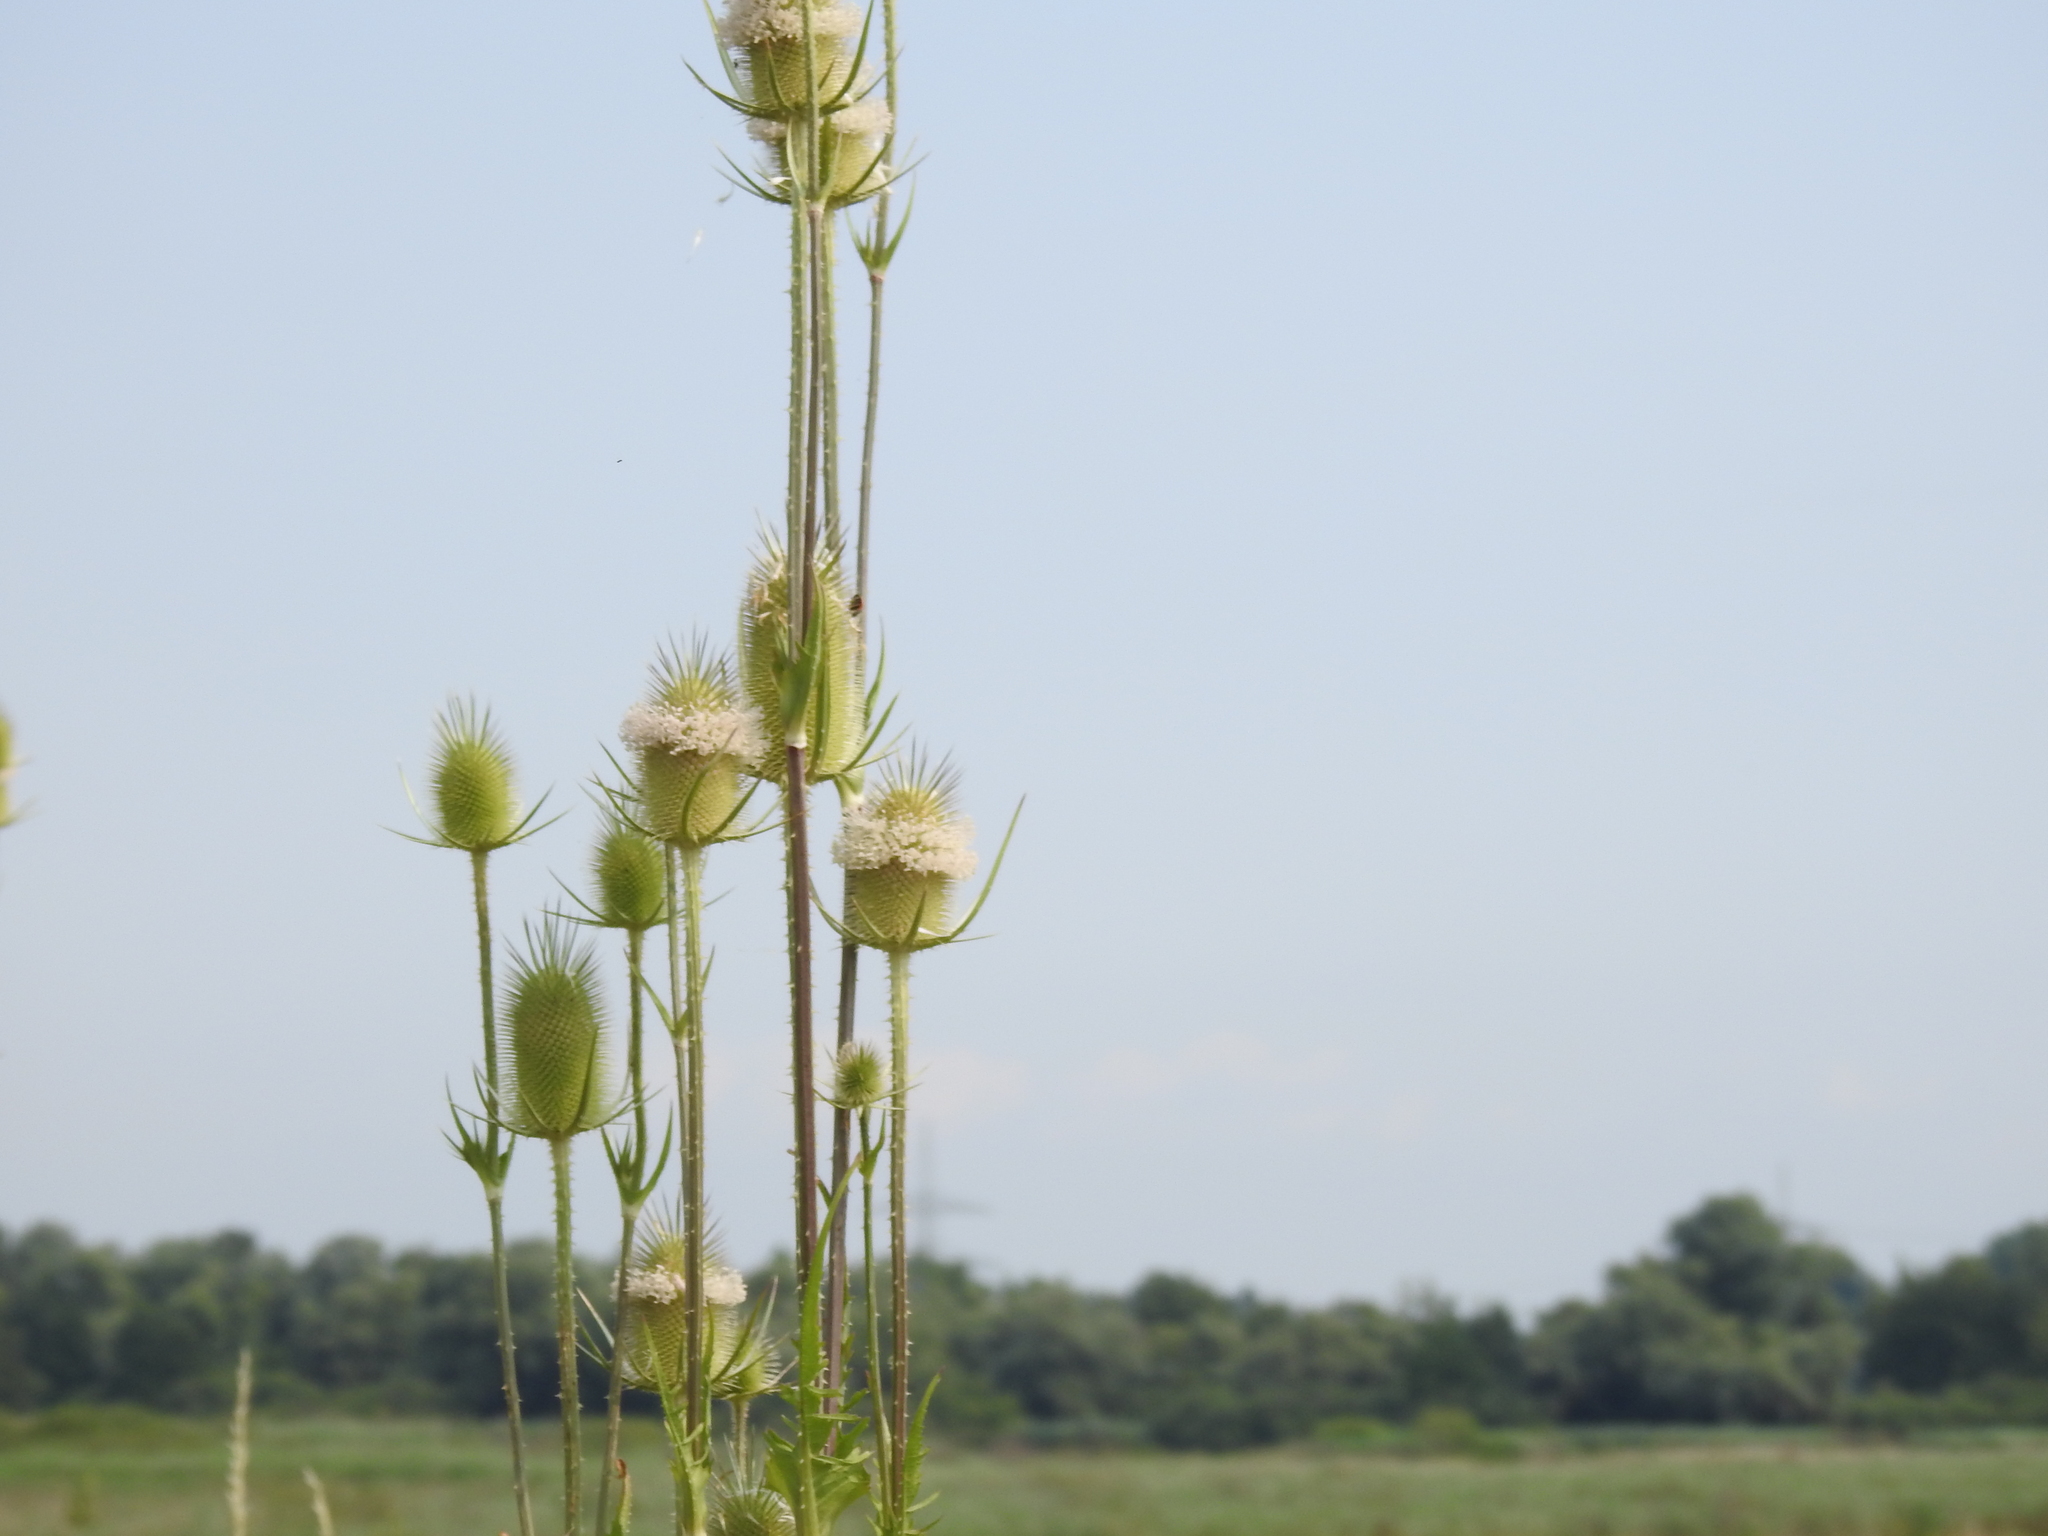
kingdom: Plantae
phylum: Tracheophyta
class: Magnoliopsida
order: Dipsacales
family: Caprifoliaceae
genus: Dipsacus
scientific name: Dipsacus laciniatus
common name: Cut-leaved teasel
